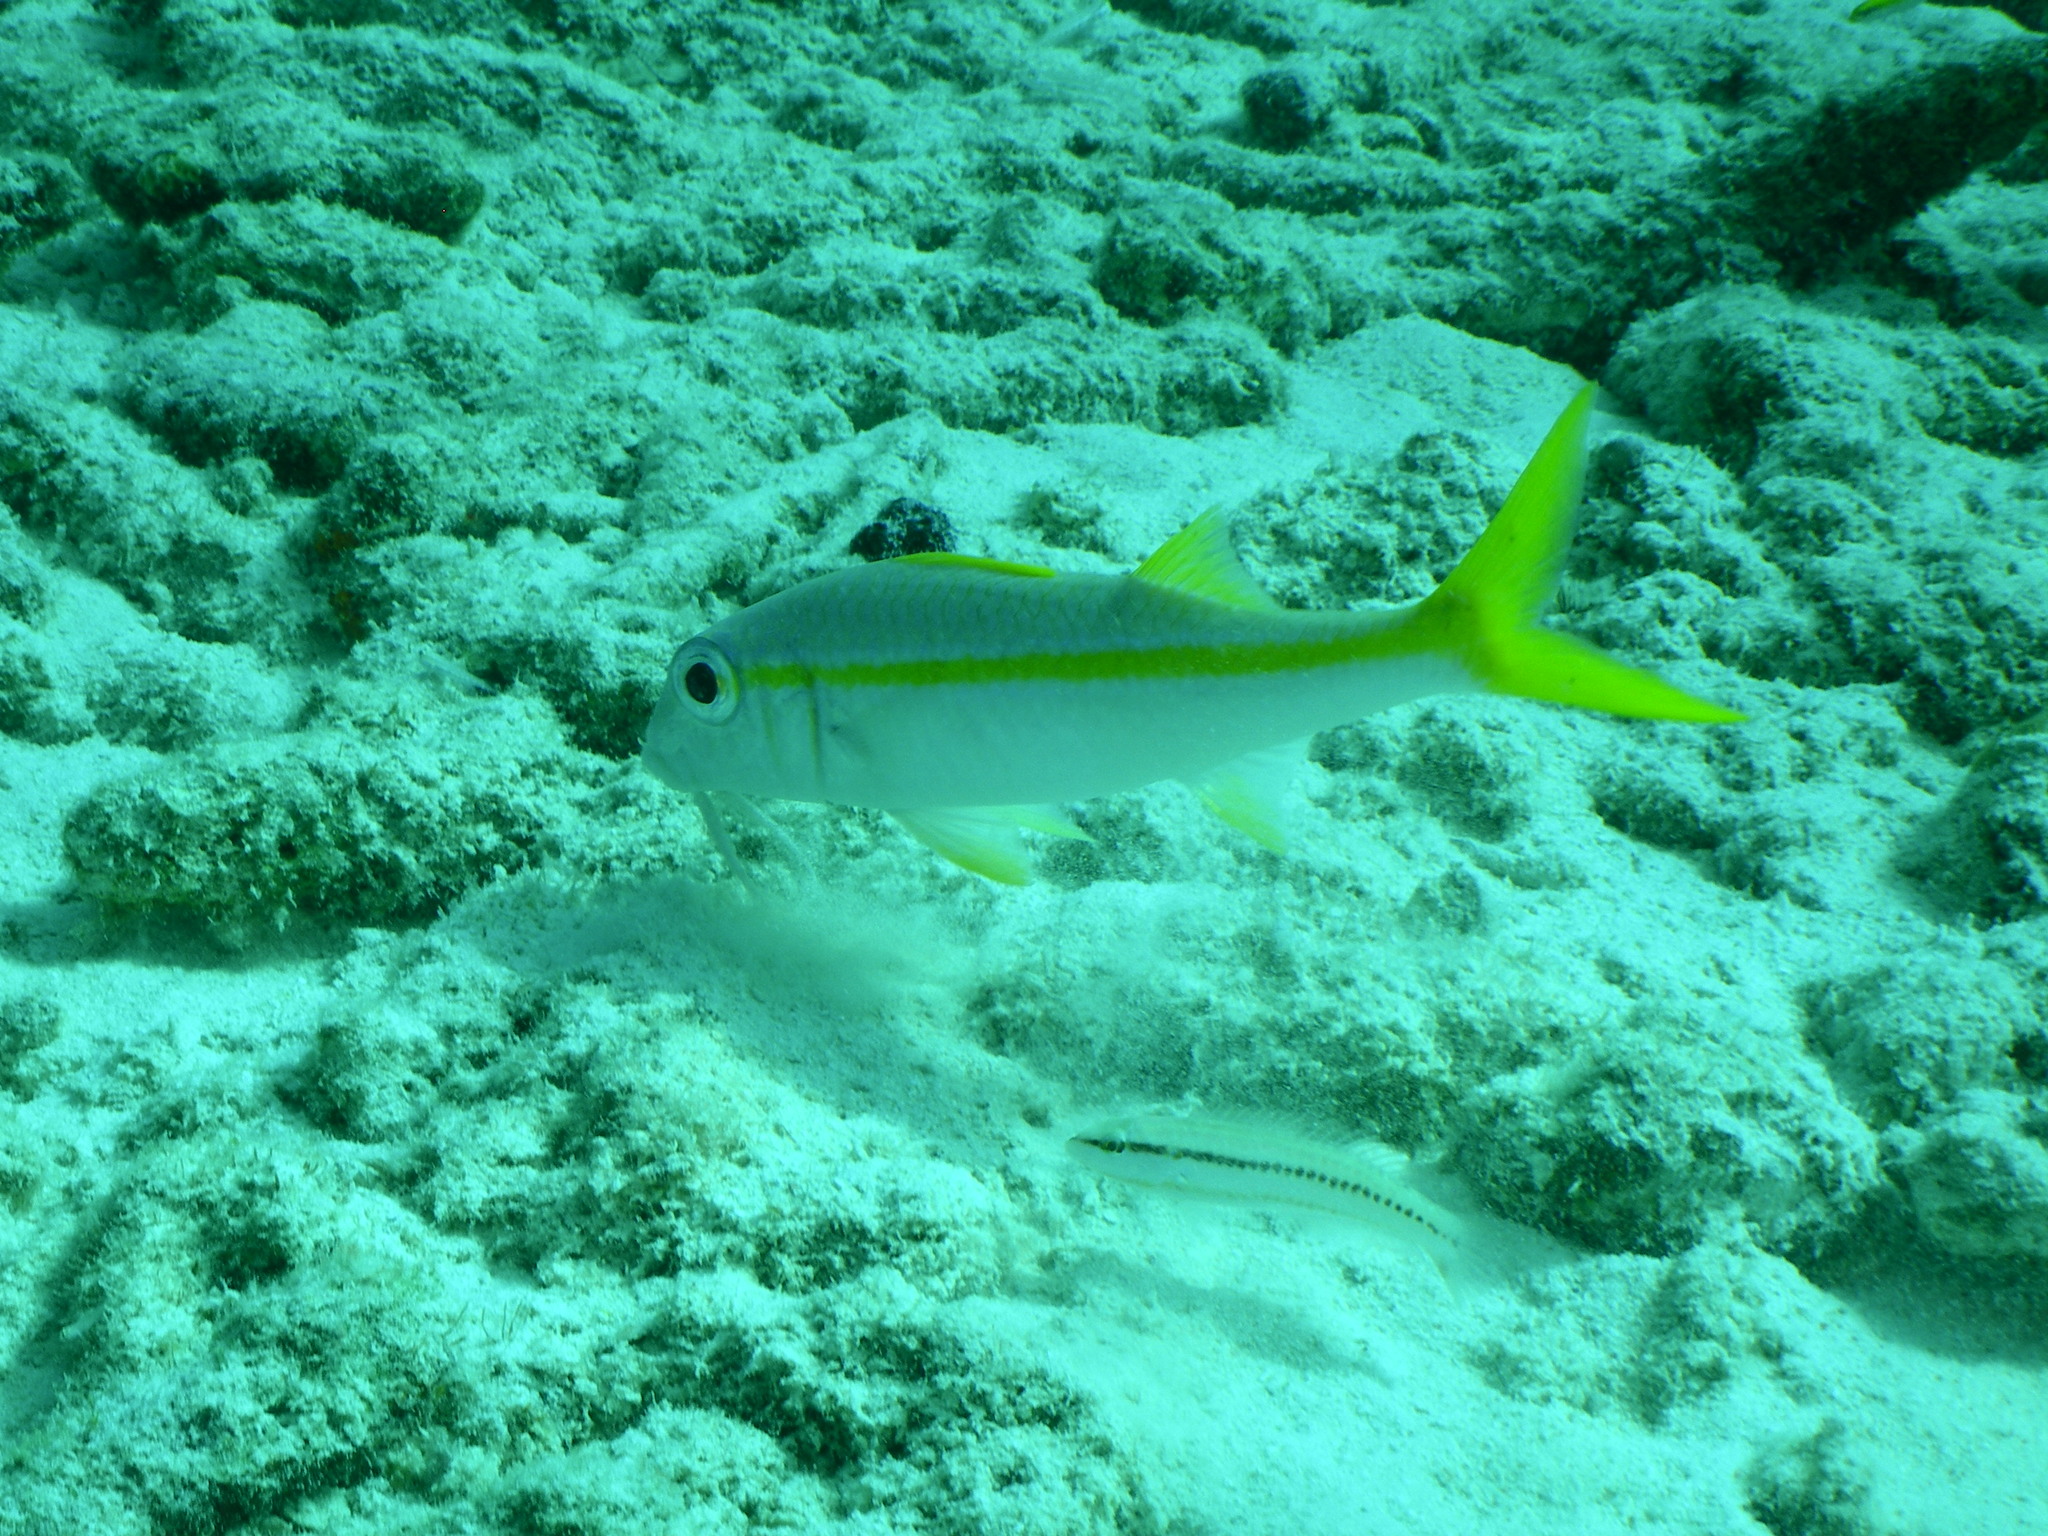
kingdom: Animalia
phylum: Chordata
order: Perciformes
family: Mullidae
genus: Mulloidichthys
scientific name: Mulloidichthys martinicus
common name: Yellow goatfish
